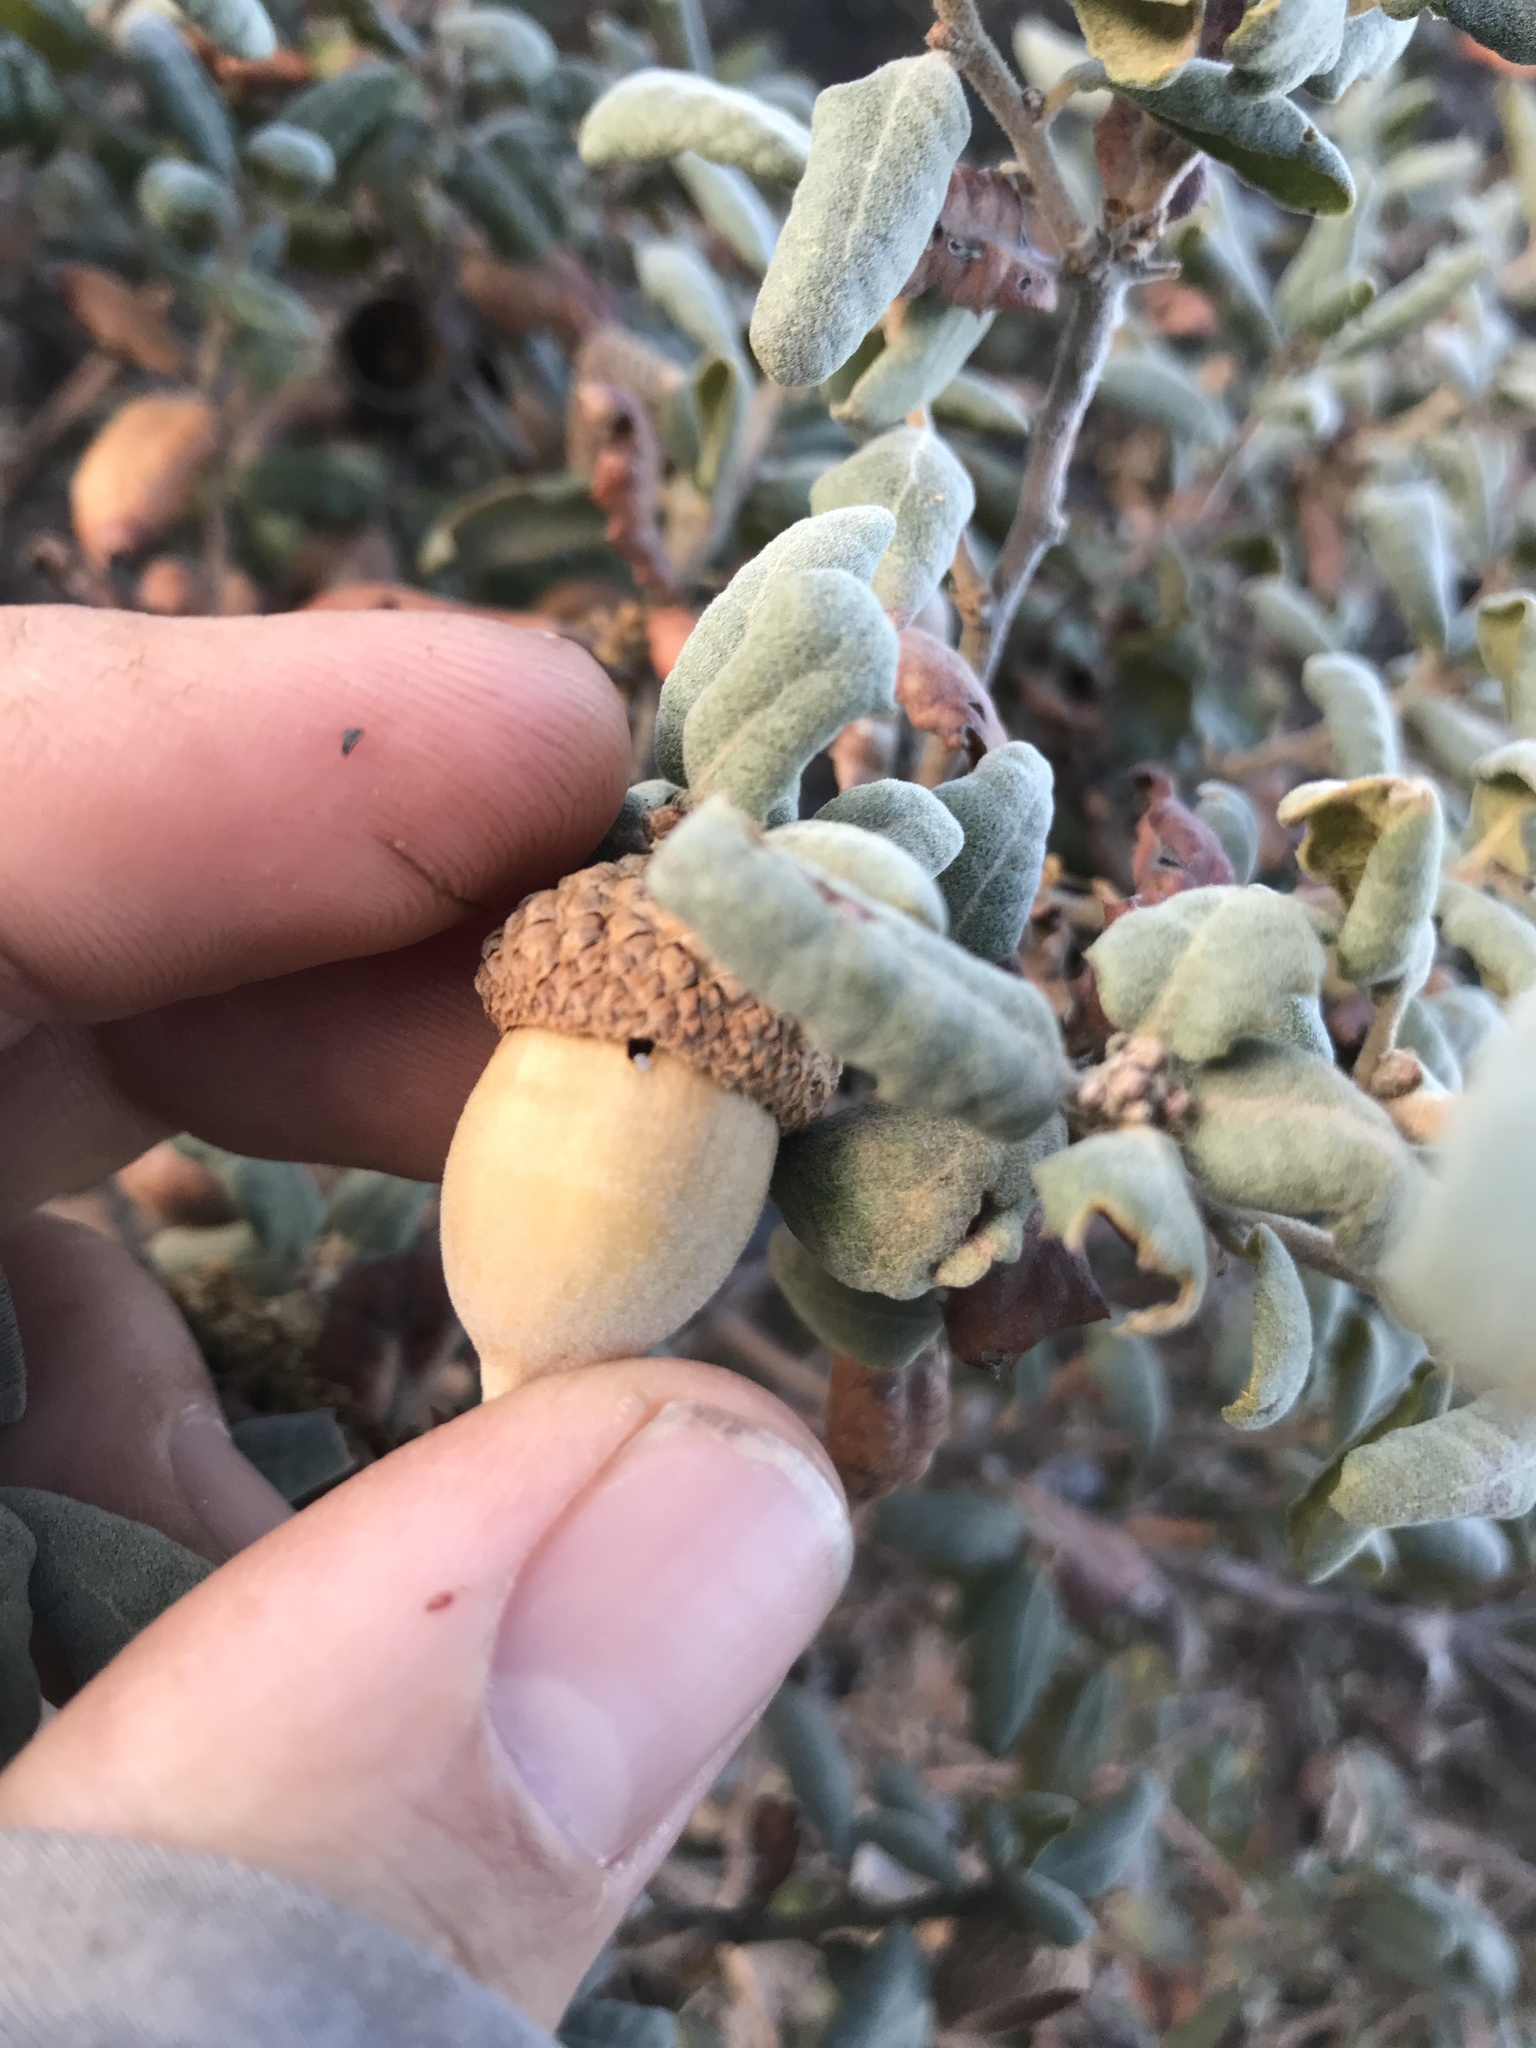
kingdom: Plantae
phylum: Tracheophyta
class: Magnoliopsida
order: Fagales
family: Fagaceae
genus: Quercus
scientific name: Quercus durata
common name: Leather oak
